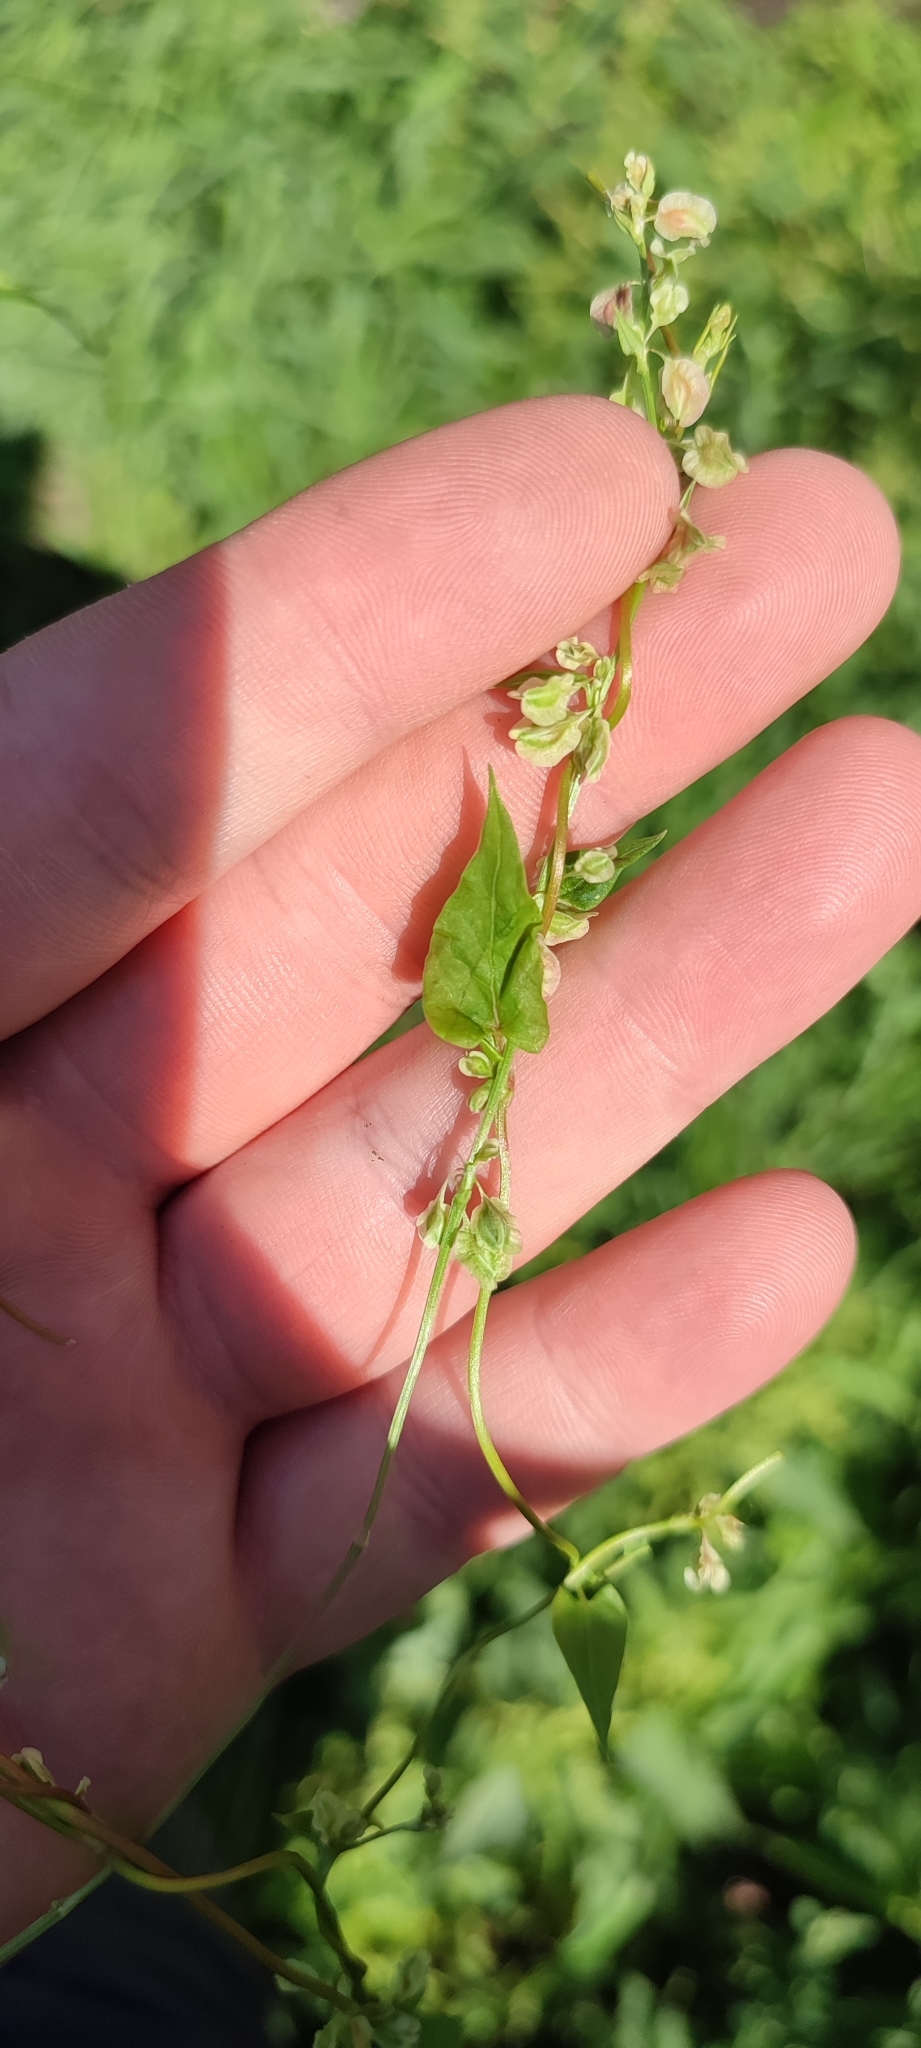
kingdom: Plantae
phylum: Tracheophyta
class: Magnoliopsida
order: Caryophyllales
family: Polygonaceae
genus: Fallopia
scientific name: Fallopia dumetorum
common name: Copse-bindweed
